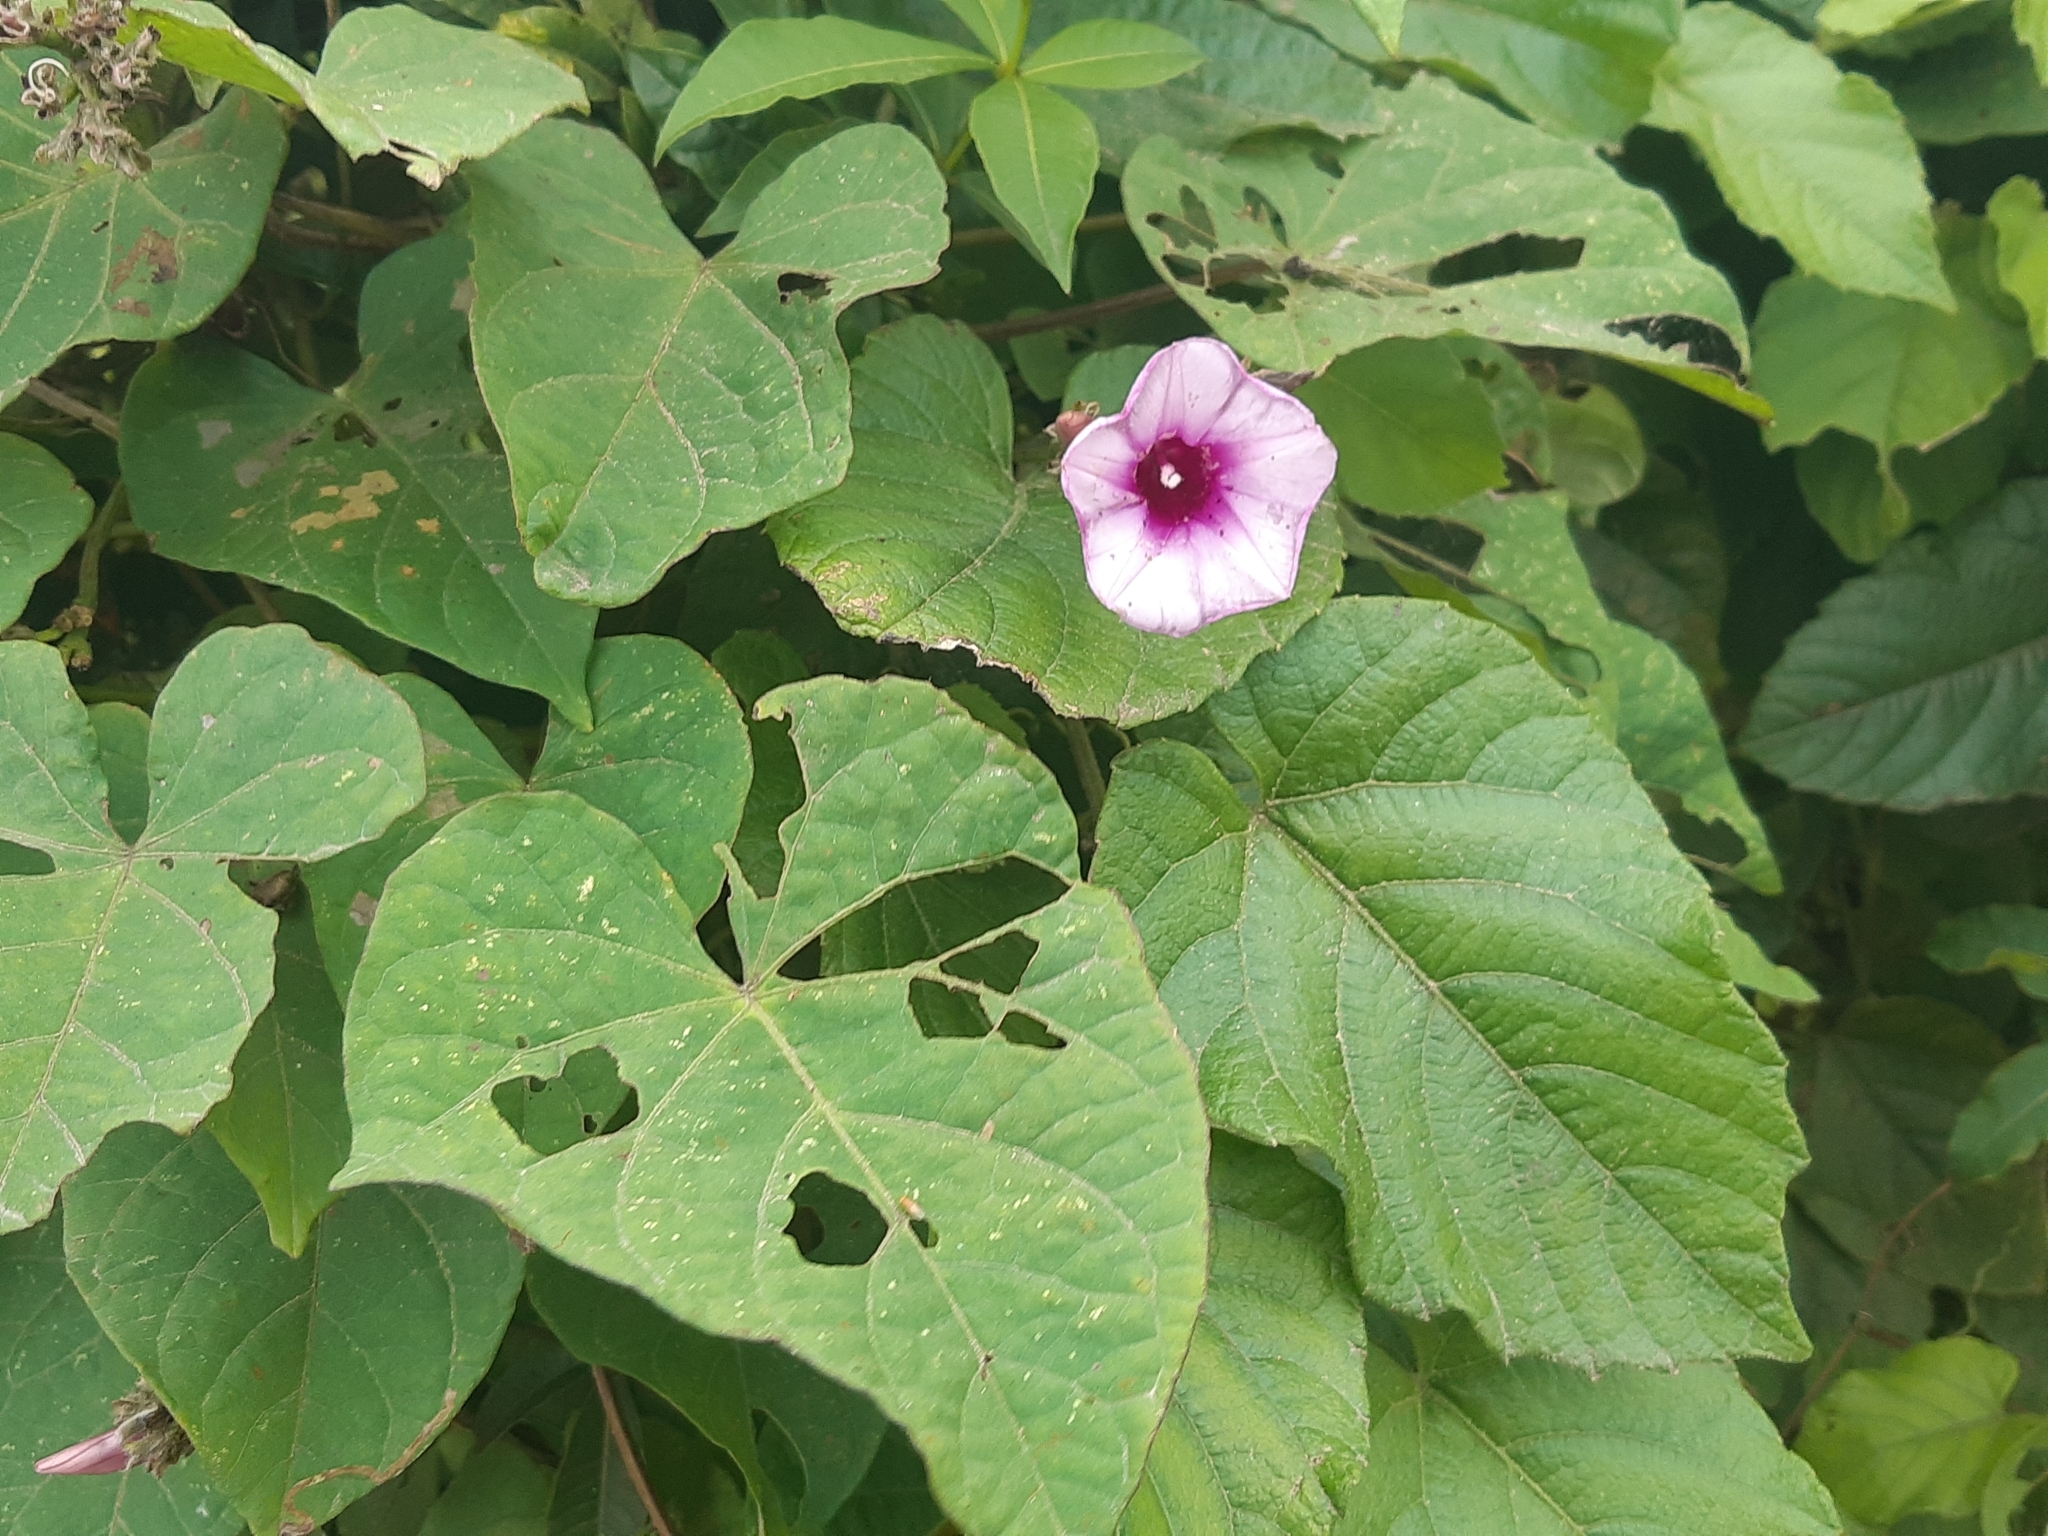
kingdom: Plantae
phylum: Tracheophyta
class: Magnoliopsida
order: Solanales
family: Convolvulaceae
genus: Ipomoea
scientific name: Ipomoea batatas
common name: Sweet-potato
